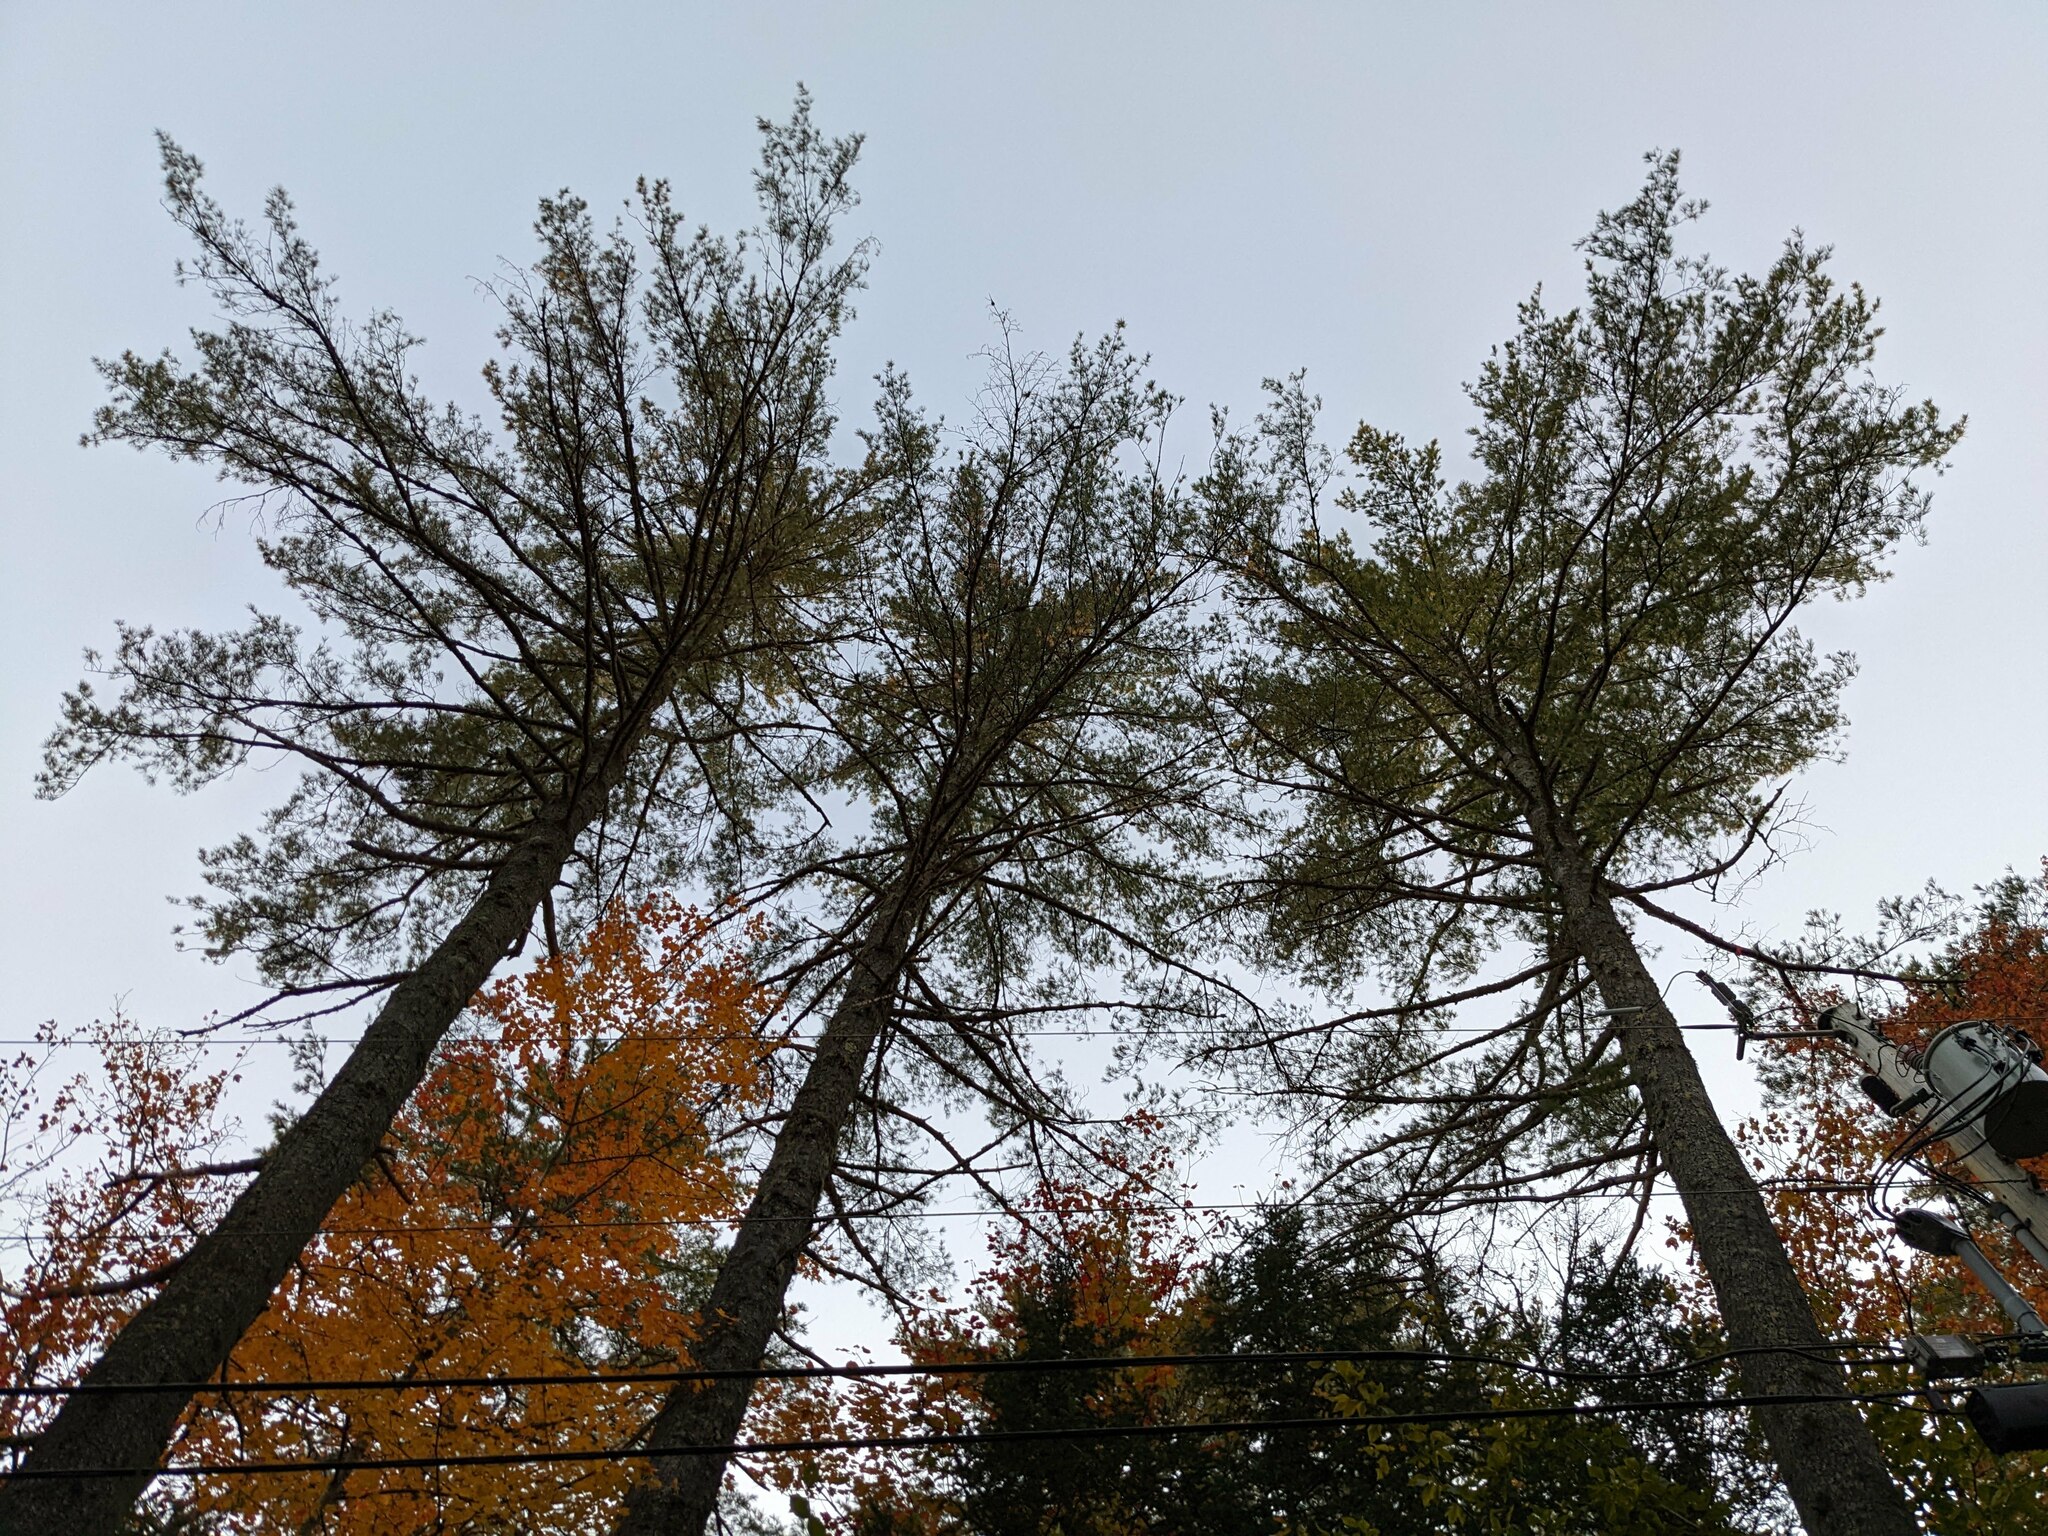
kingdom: Plantae
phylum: Tracheophyta
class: Pinopsida
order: Pinales
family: Pinaceae
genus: Pinus
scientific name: Pinus strobus
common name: Weymouth pine
